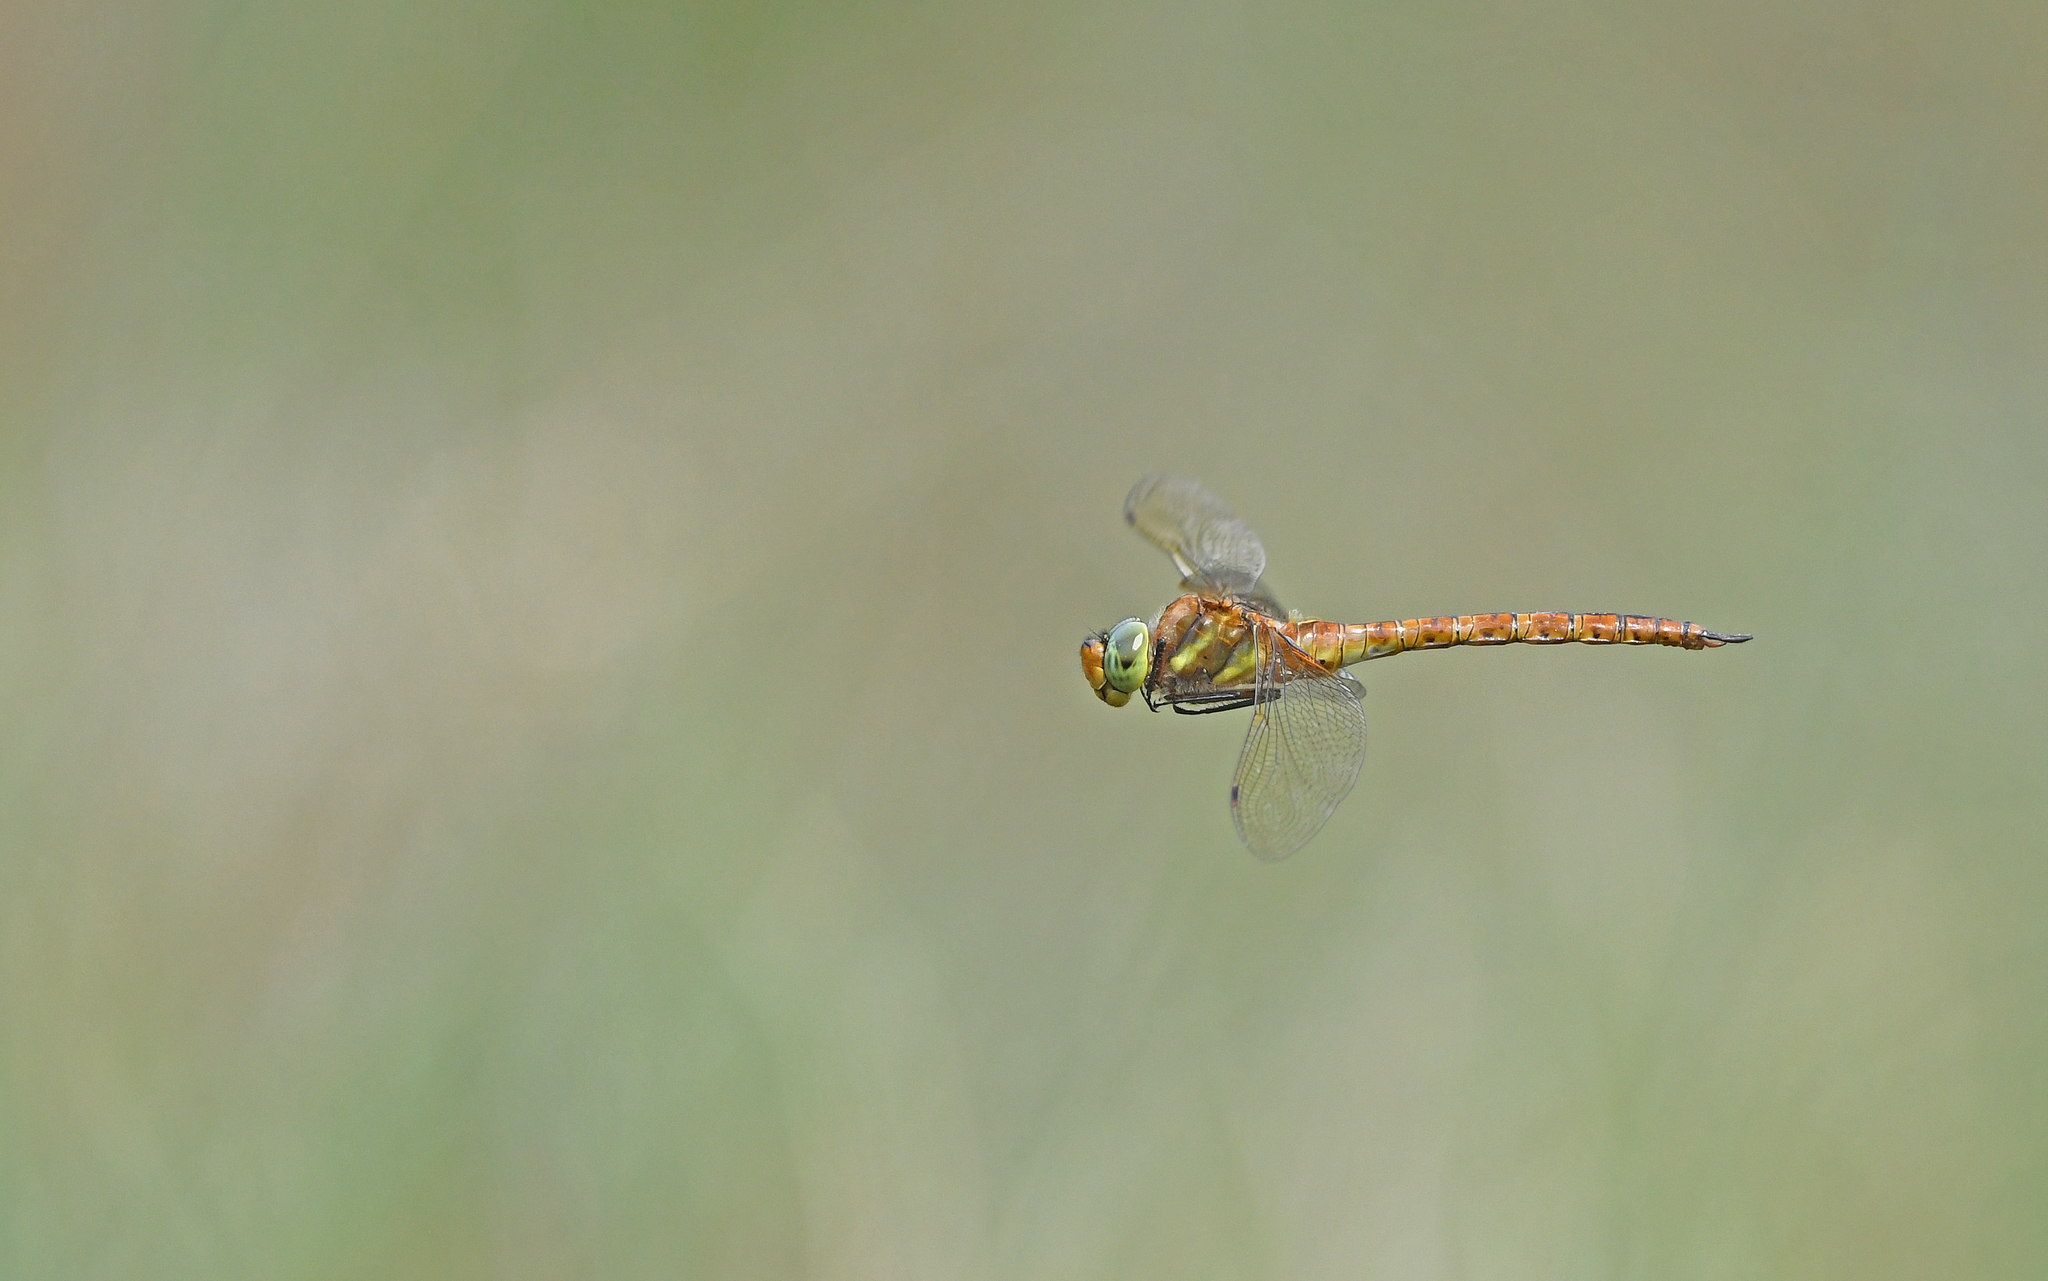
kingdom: Animalia
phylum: Arthropoda
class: Insecta
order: Odonata
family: Aeshnidae
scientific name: Aeshnidae
